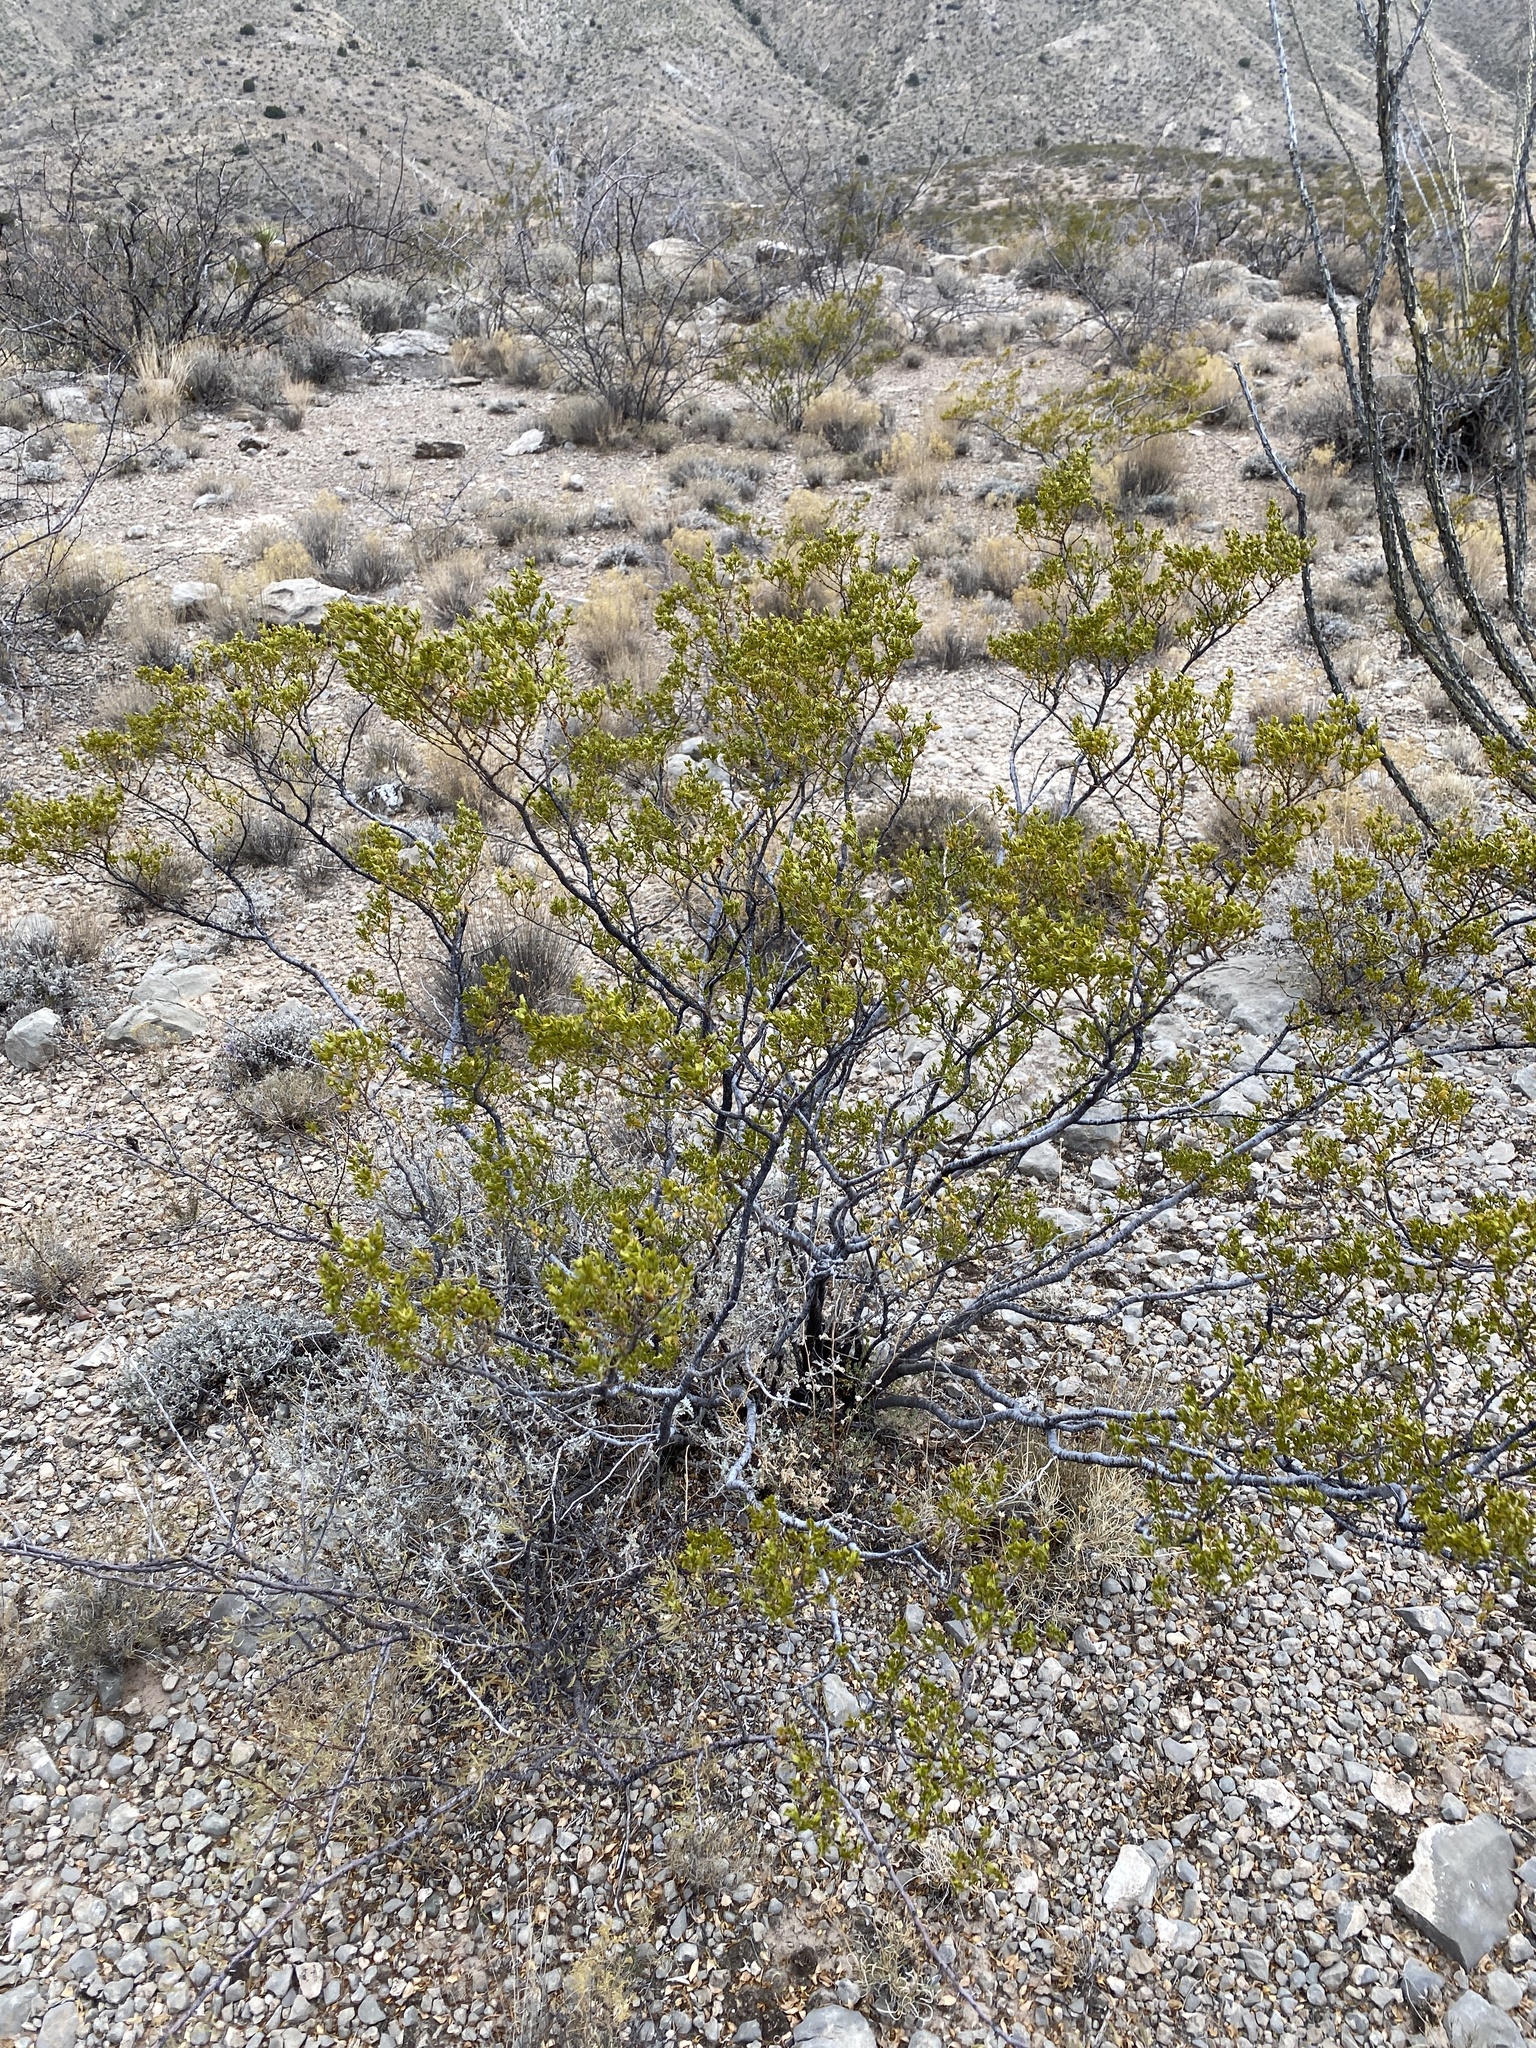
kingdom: Plantae
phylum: Tracheophyta
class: Magnoliopsida
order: Zygophyllales
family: Zygophyllaceae
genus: Larrea
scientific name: Larrea tridentata
